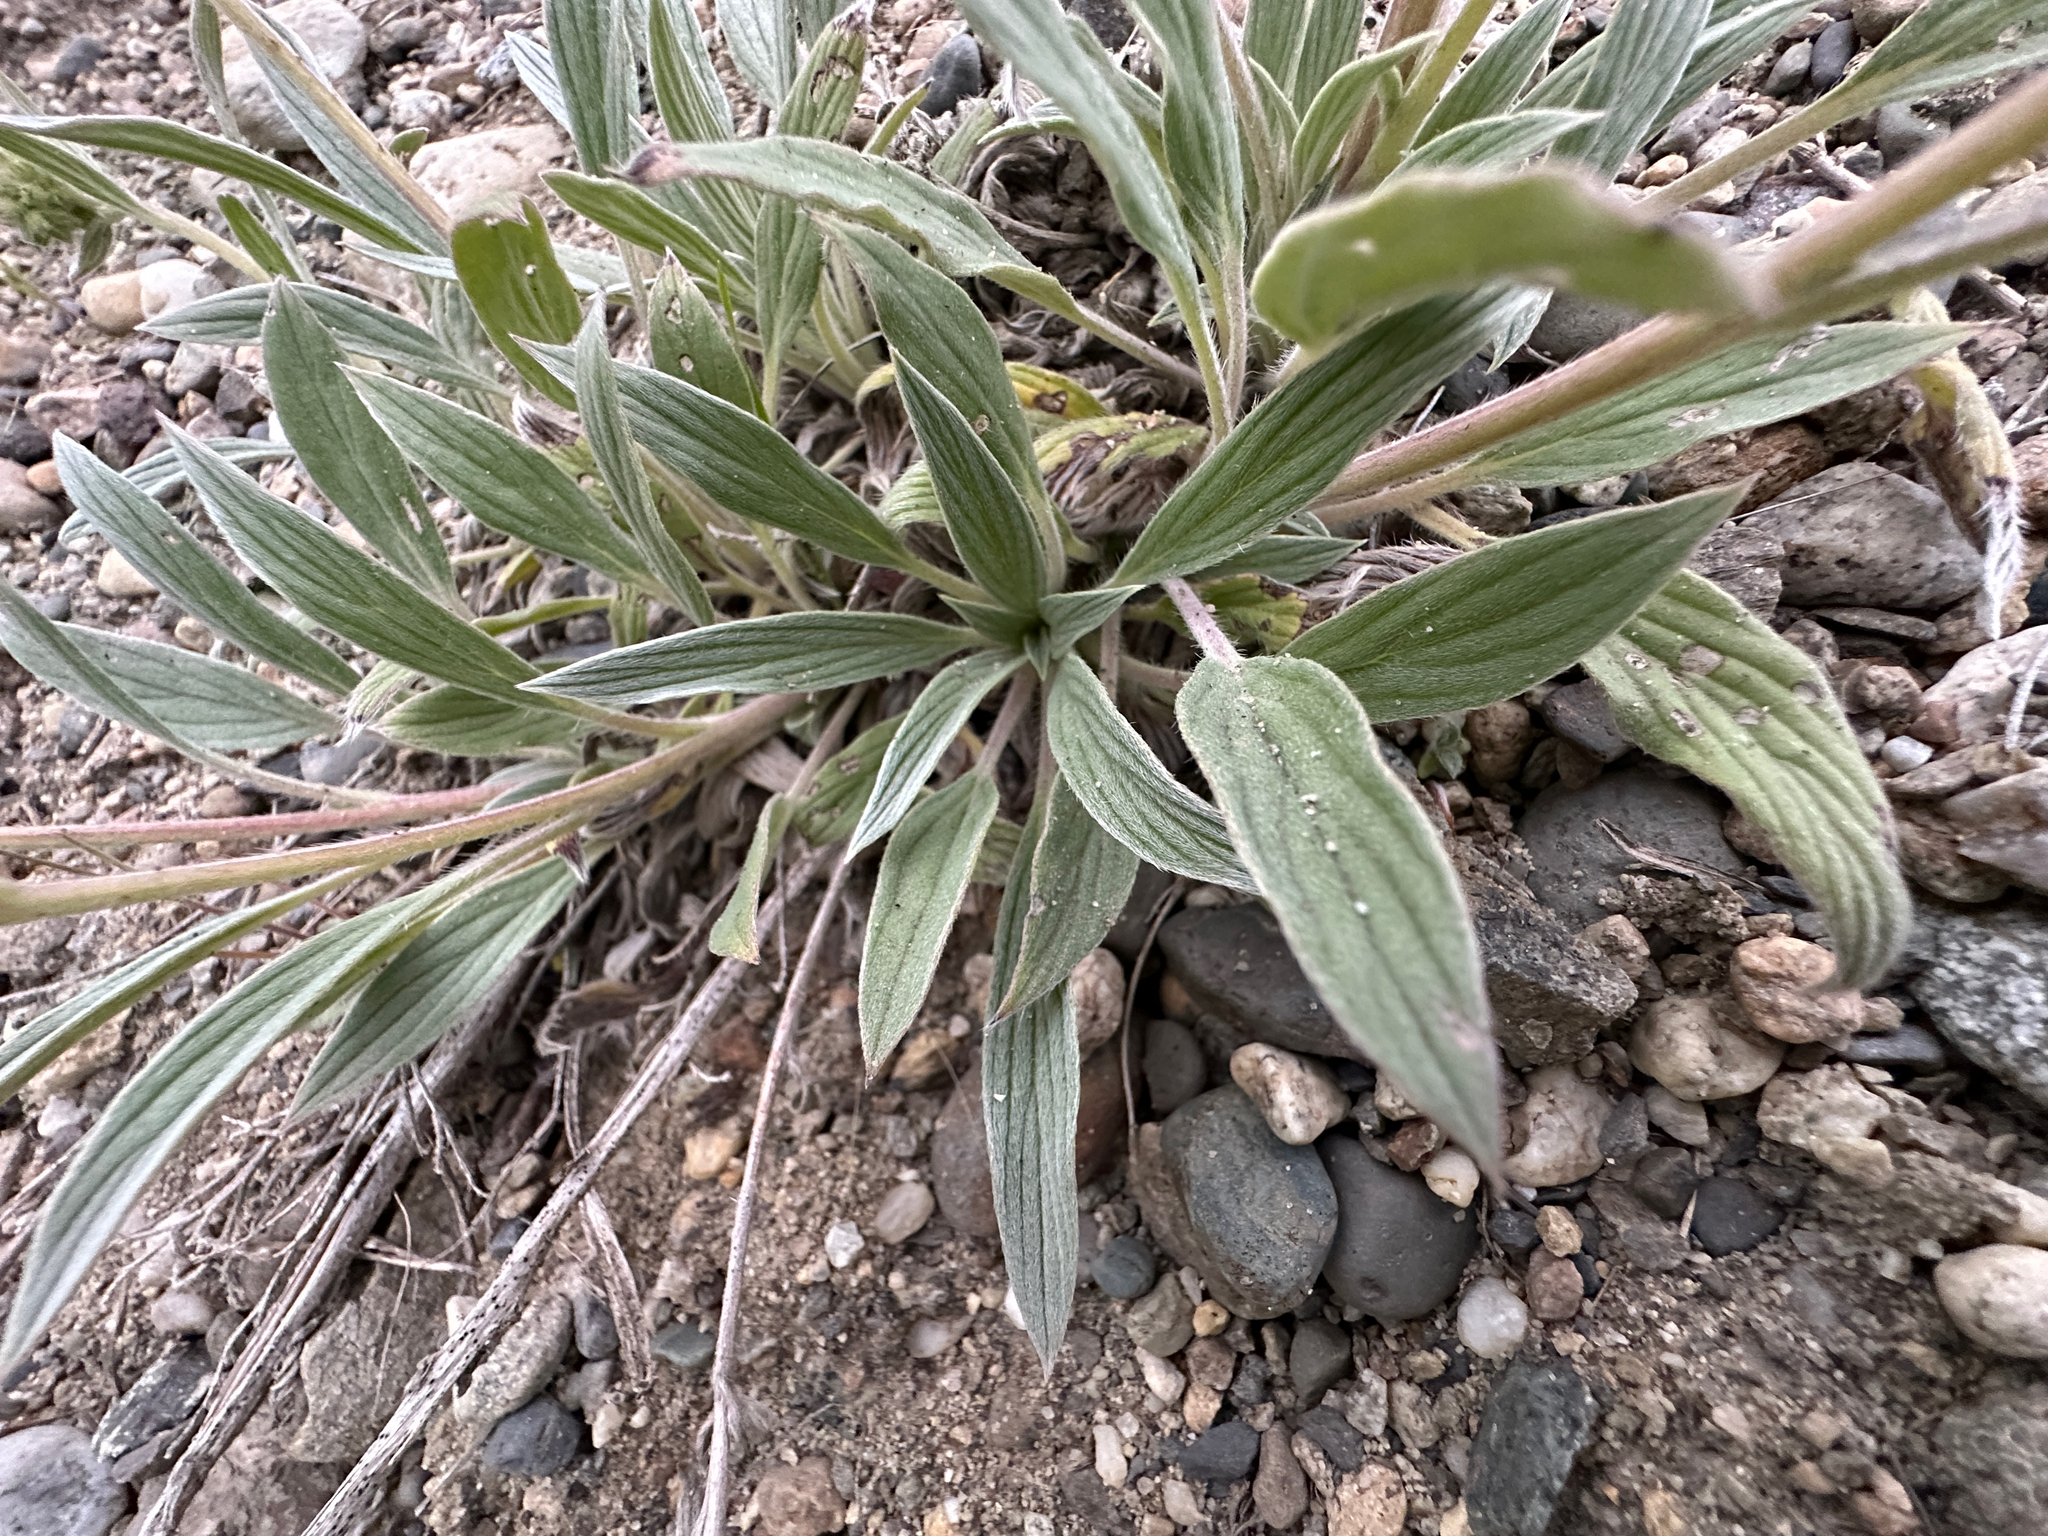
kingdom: Plantae
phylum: Tracheophyta
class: Magnoliopsida
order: Boraginales
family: Hydrophyllaceae
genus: Phacelia
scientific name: Phacelia hastata
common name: Silver-leaved phacelia
